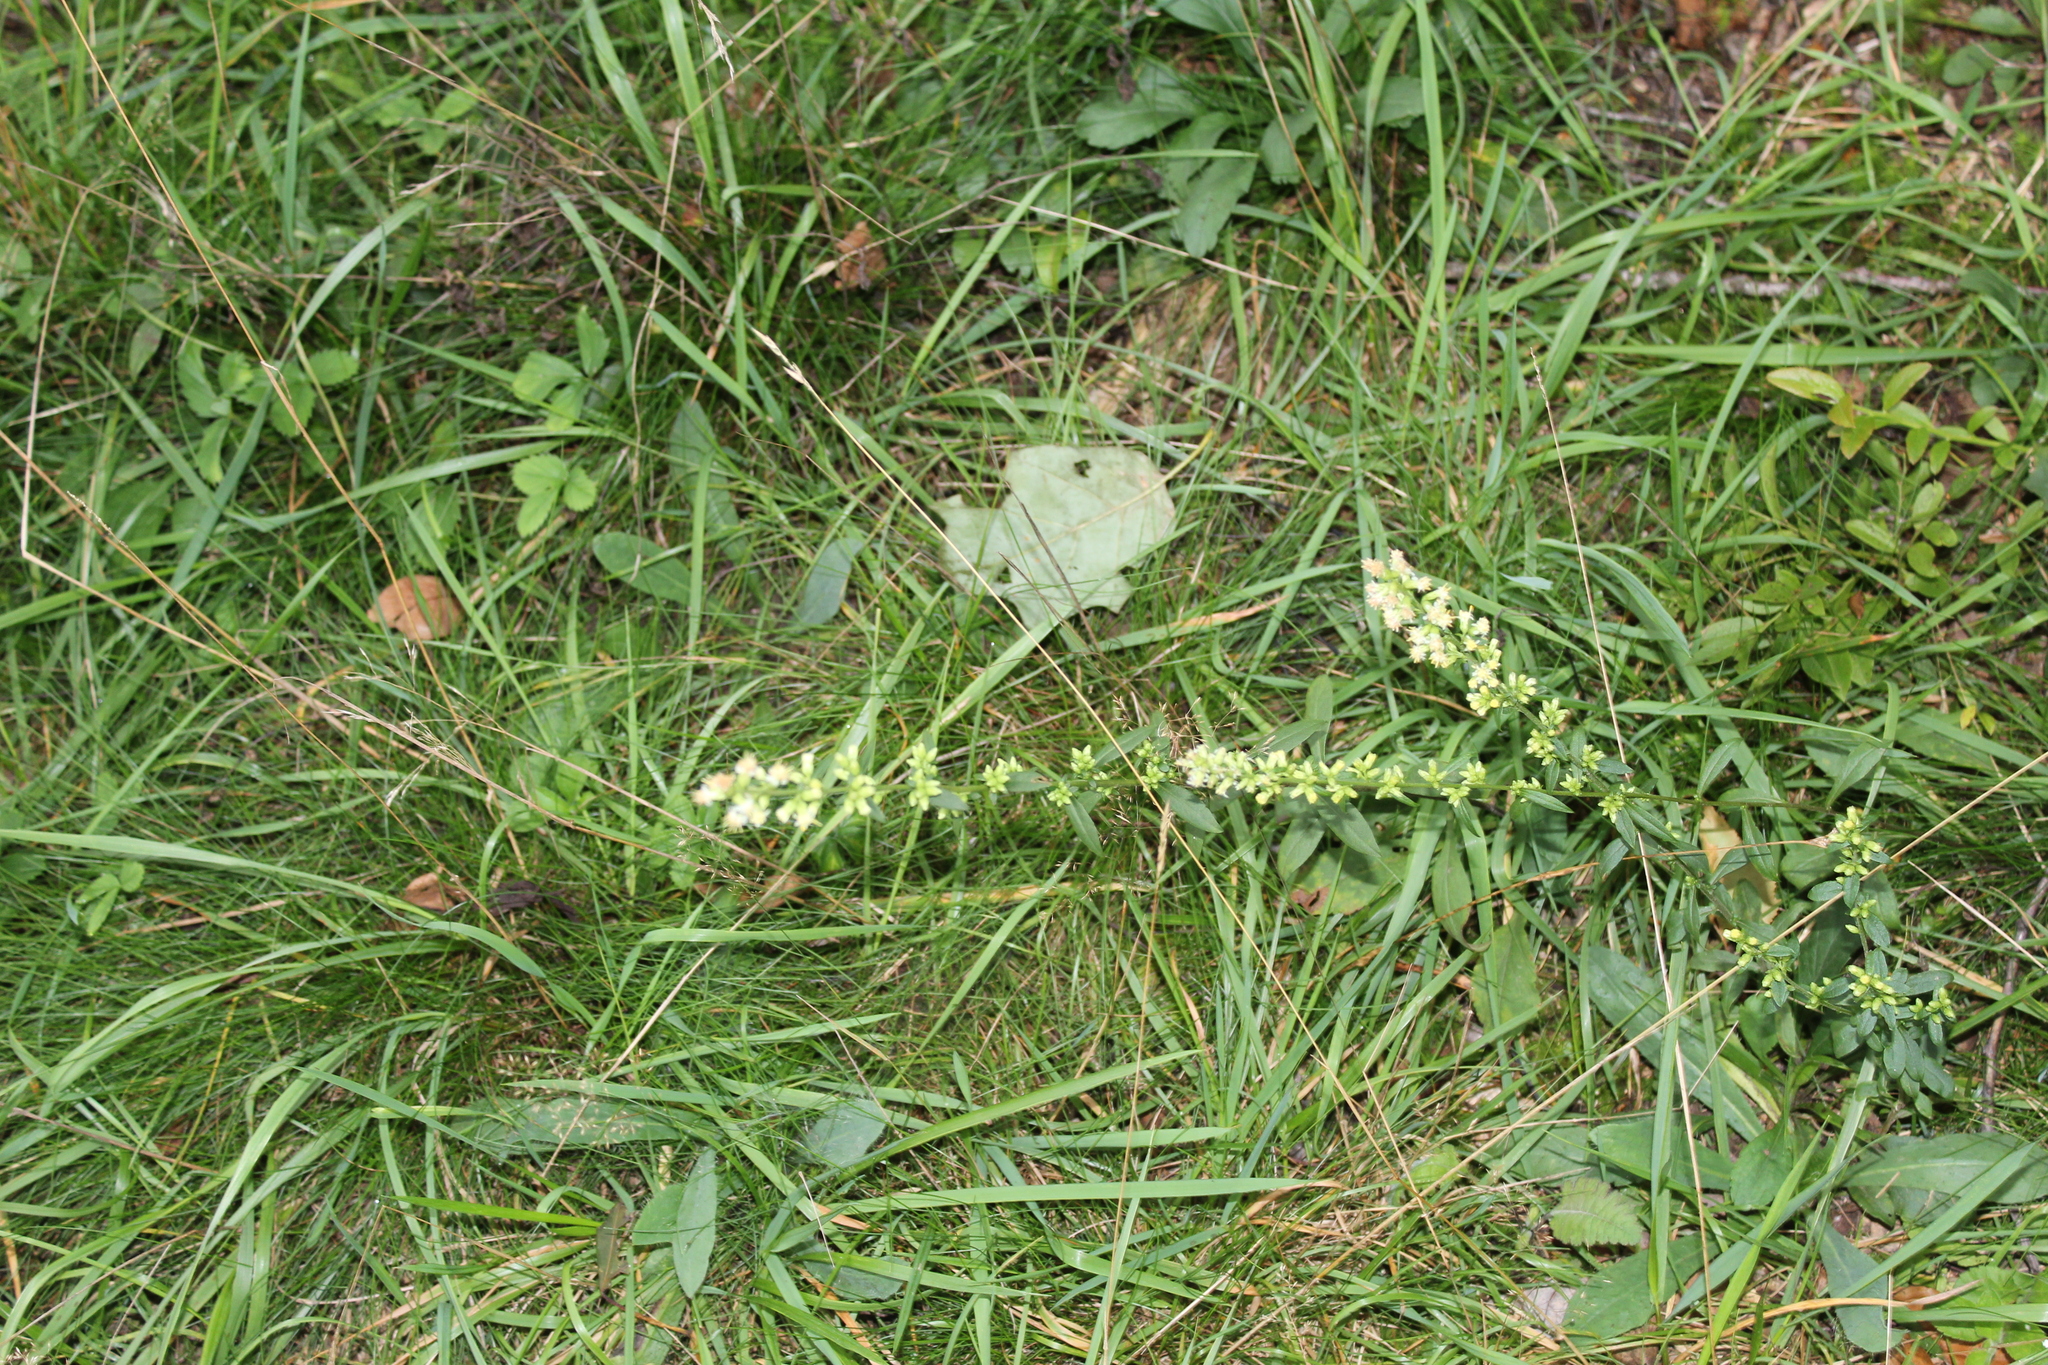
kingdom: Plantae
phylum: Tracheophyta
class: Magnoliopsida
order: Asterales
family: Asteraceae
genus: Solidago
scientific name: Solidago bicolor
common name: Silverrod
